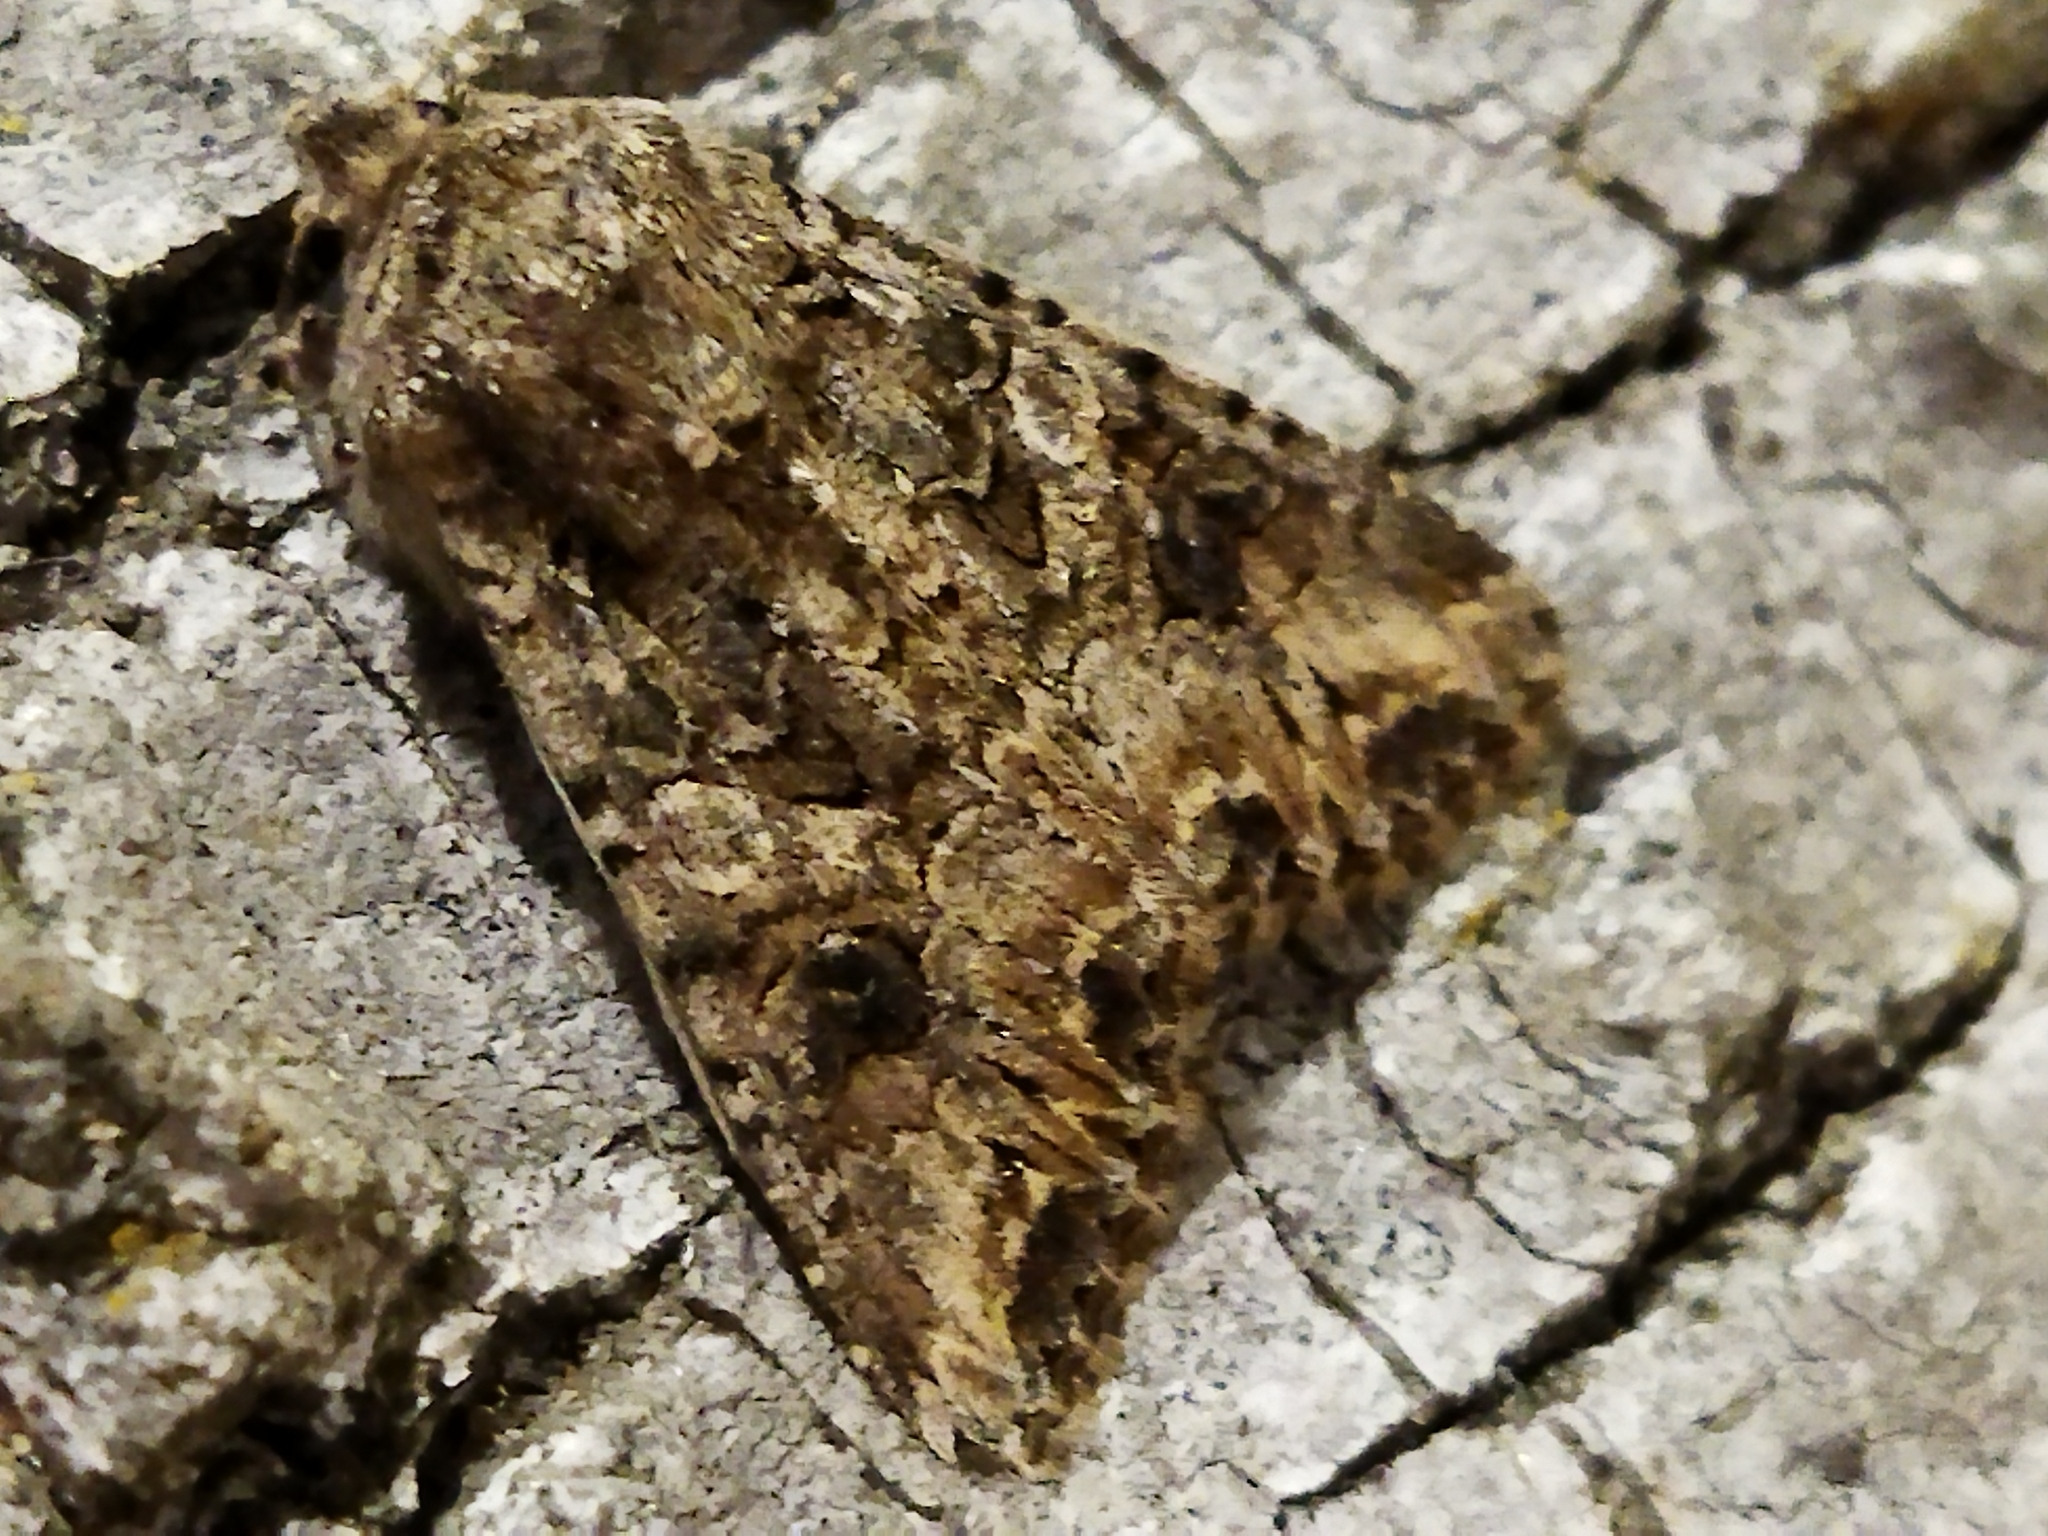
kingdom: Animalia
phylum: Arthropoda
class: Insecta
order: Lepidoptera
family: Noctuidae
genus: Anarta
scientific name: Anarta trifolii
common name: Clover cutworm moth
